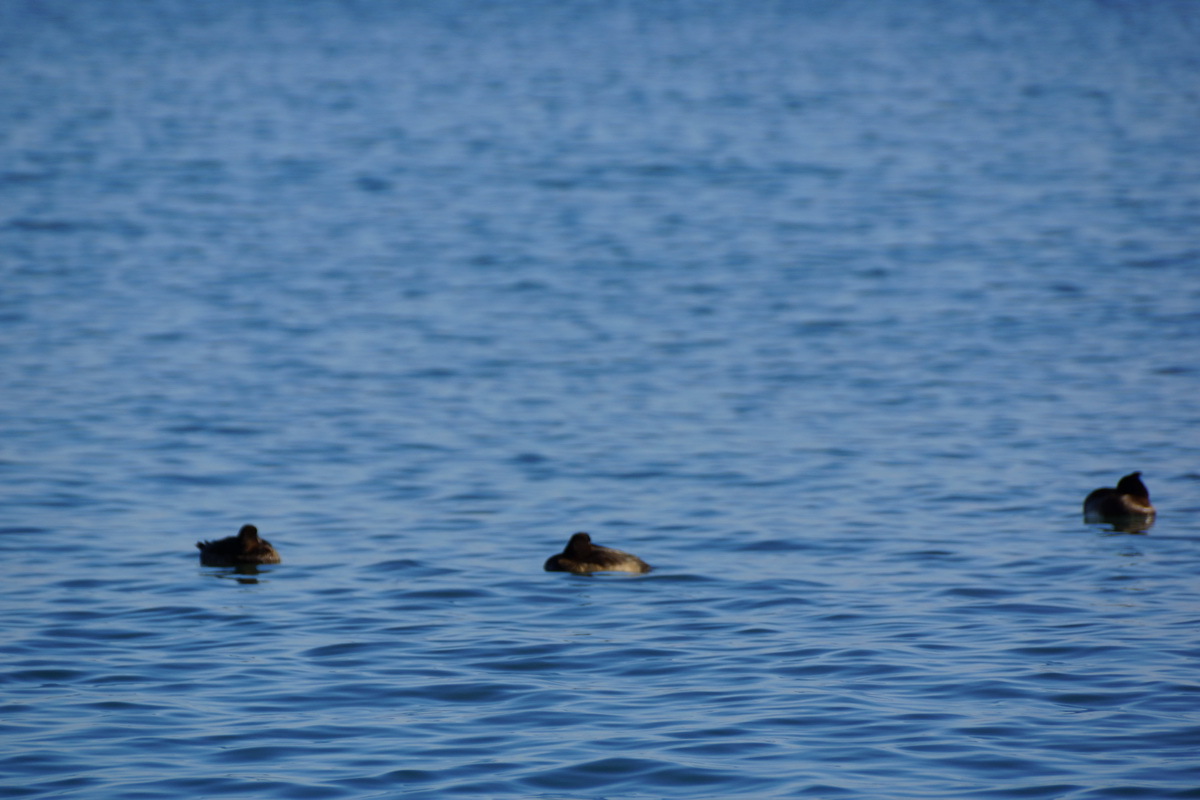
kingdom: Animalia
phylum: Chordata
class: Aves
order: Anseriformes
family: Anatidae
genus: Aythya
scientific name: Aythya fuligula
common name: Tufted duck
